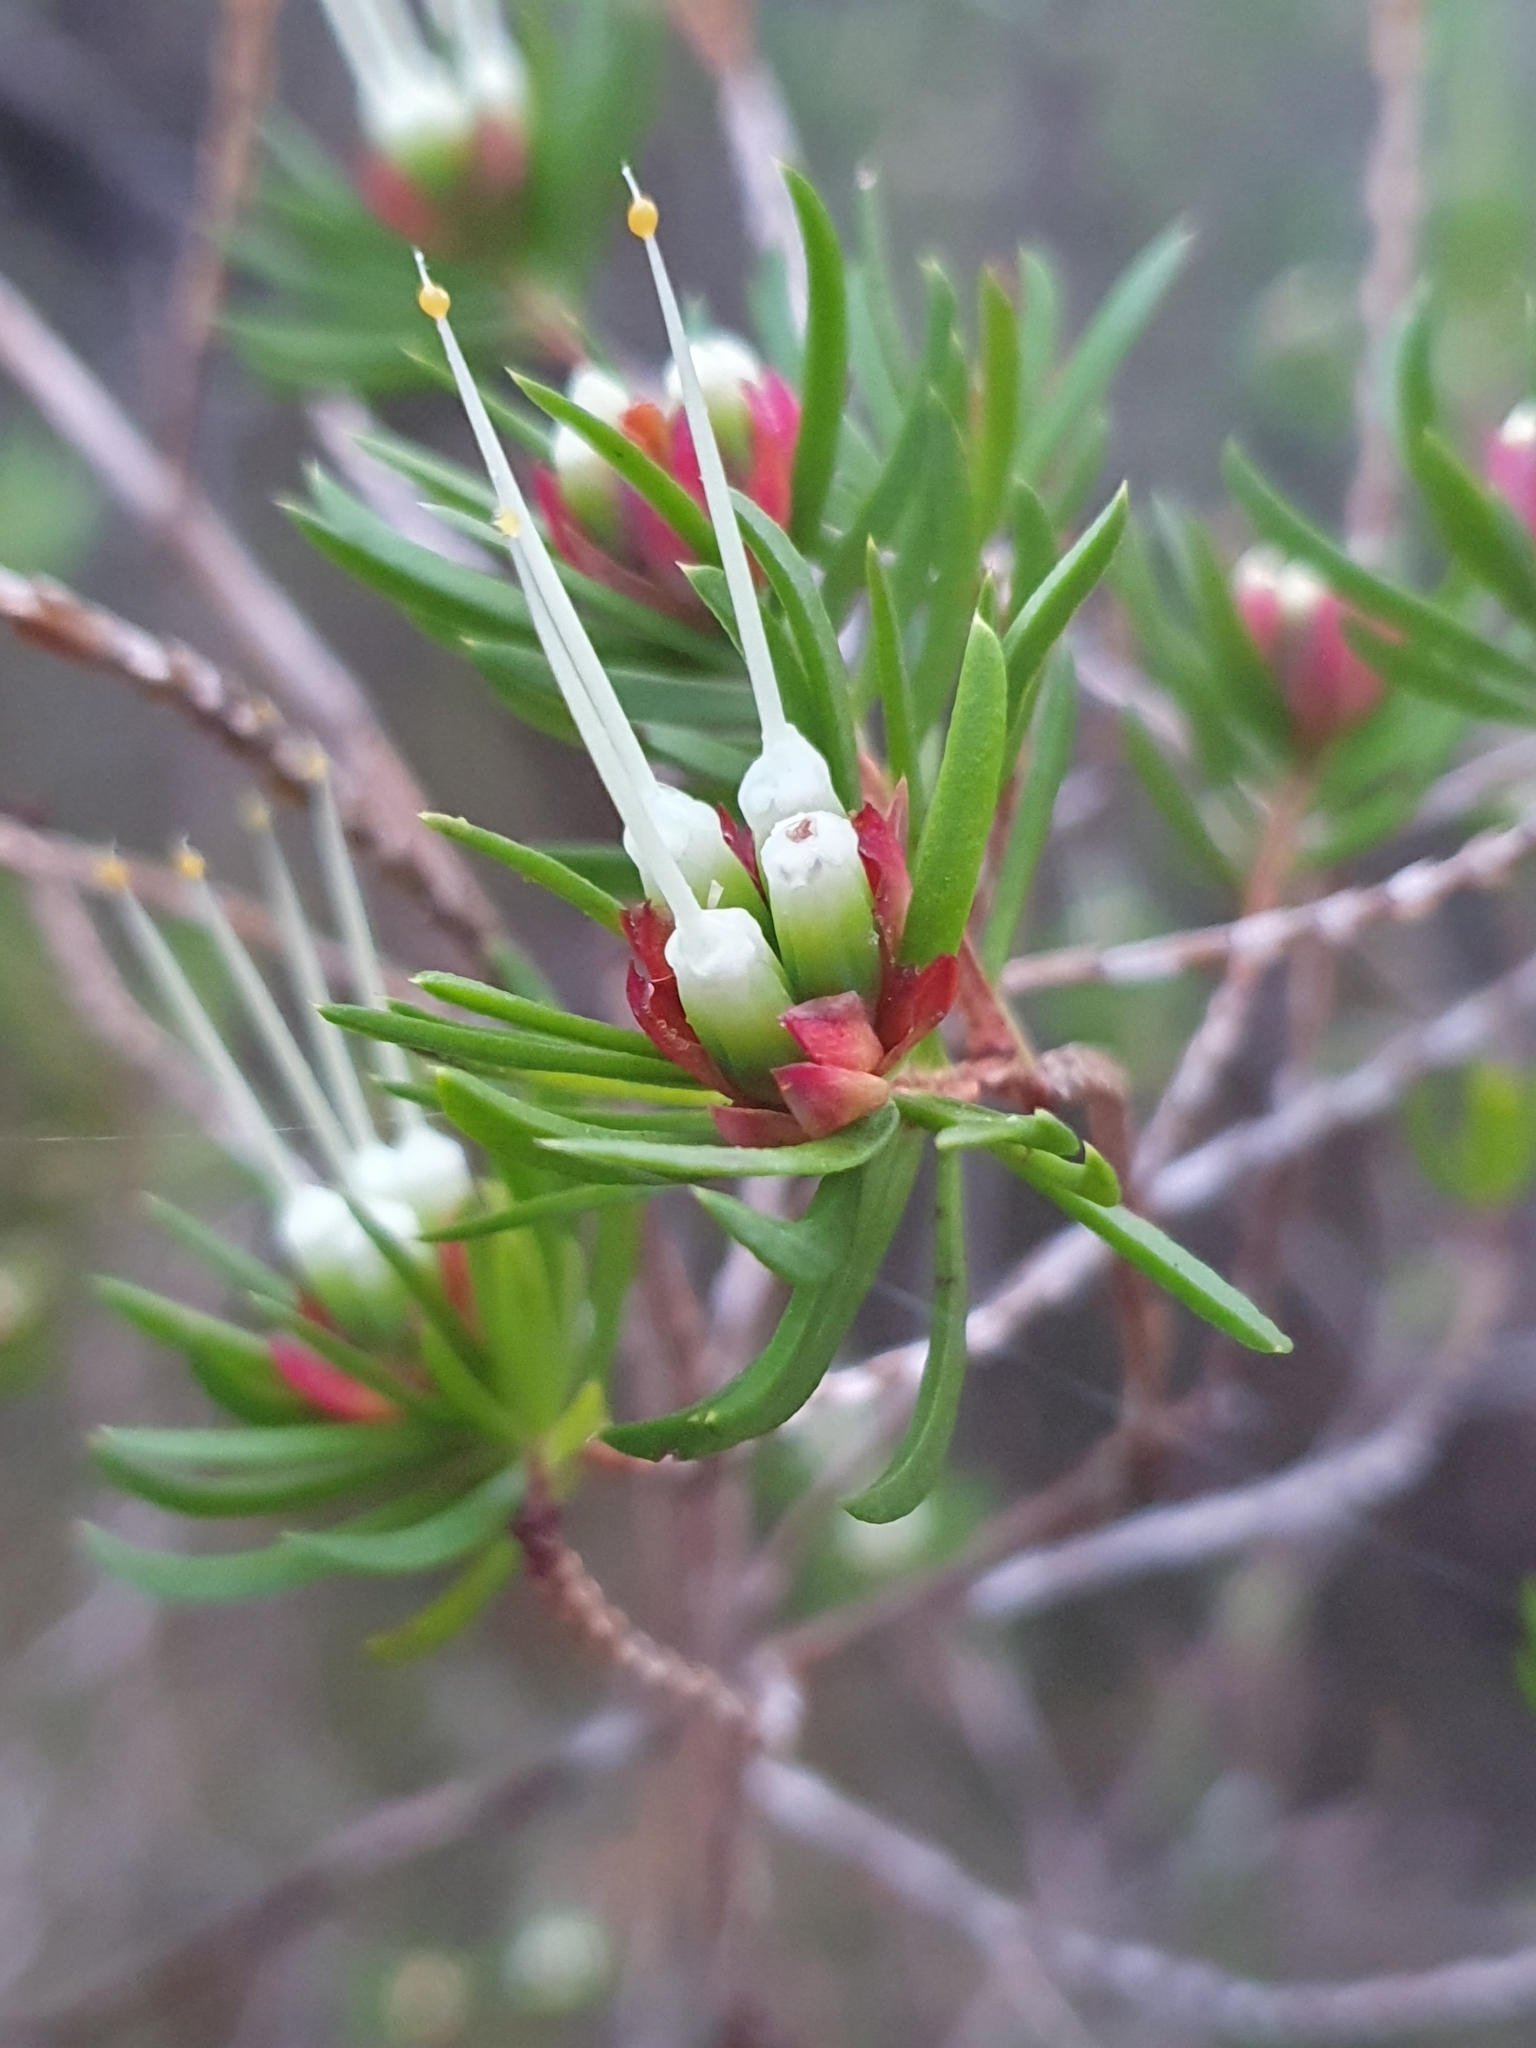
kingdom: Plantae
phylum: Tracheophyta
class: Magnoliopsida
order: Myrtales
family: Myrtaceae
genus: Darwinia
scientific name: Darwinia fascicularis
